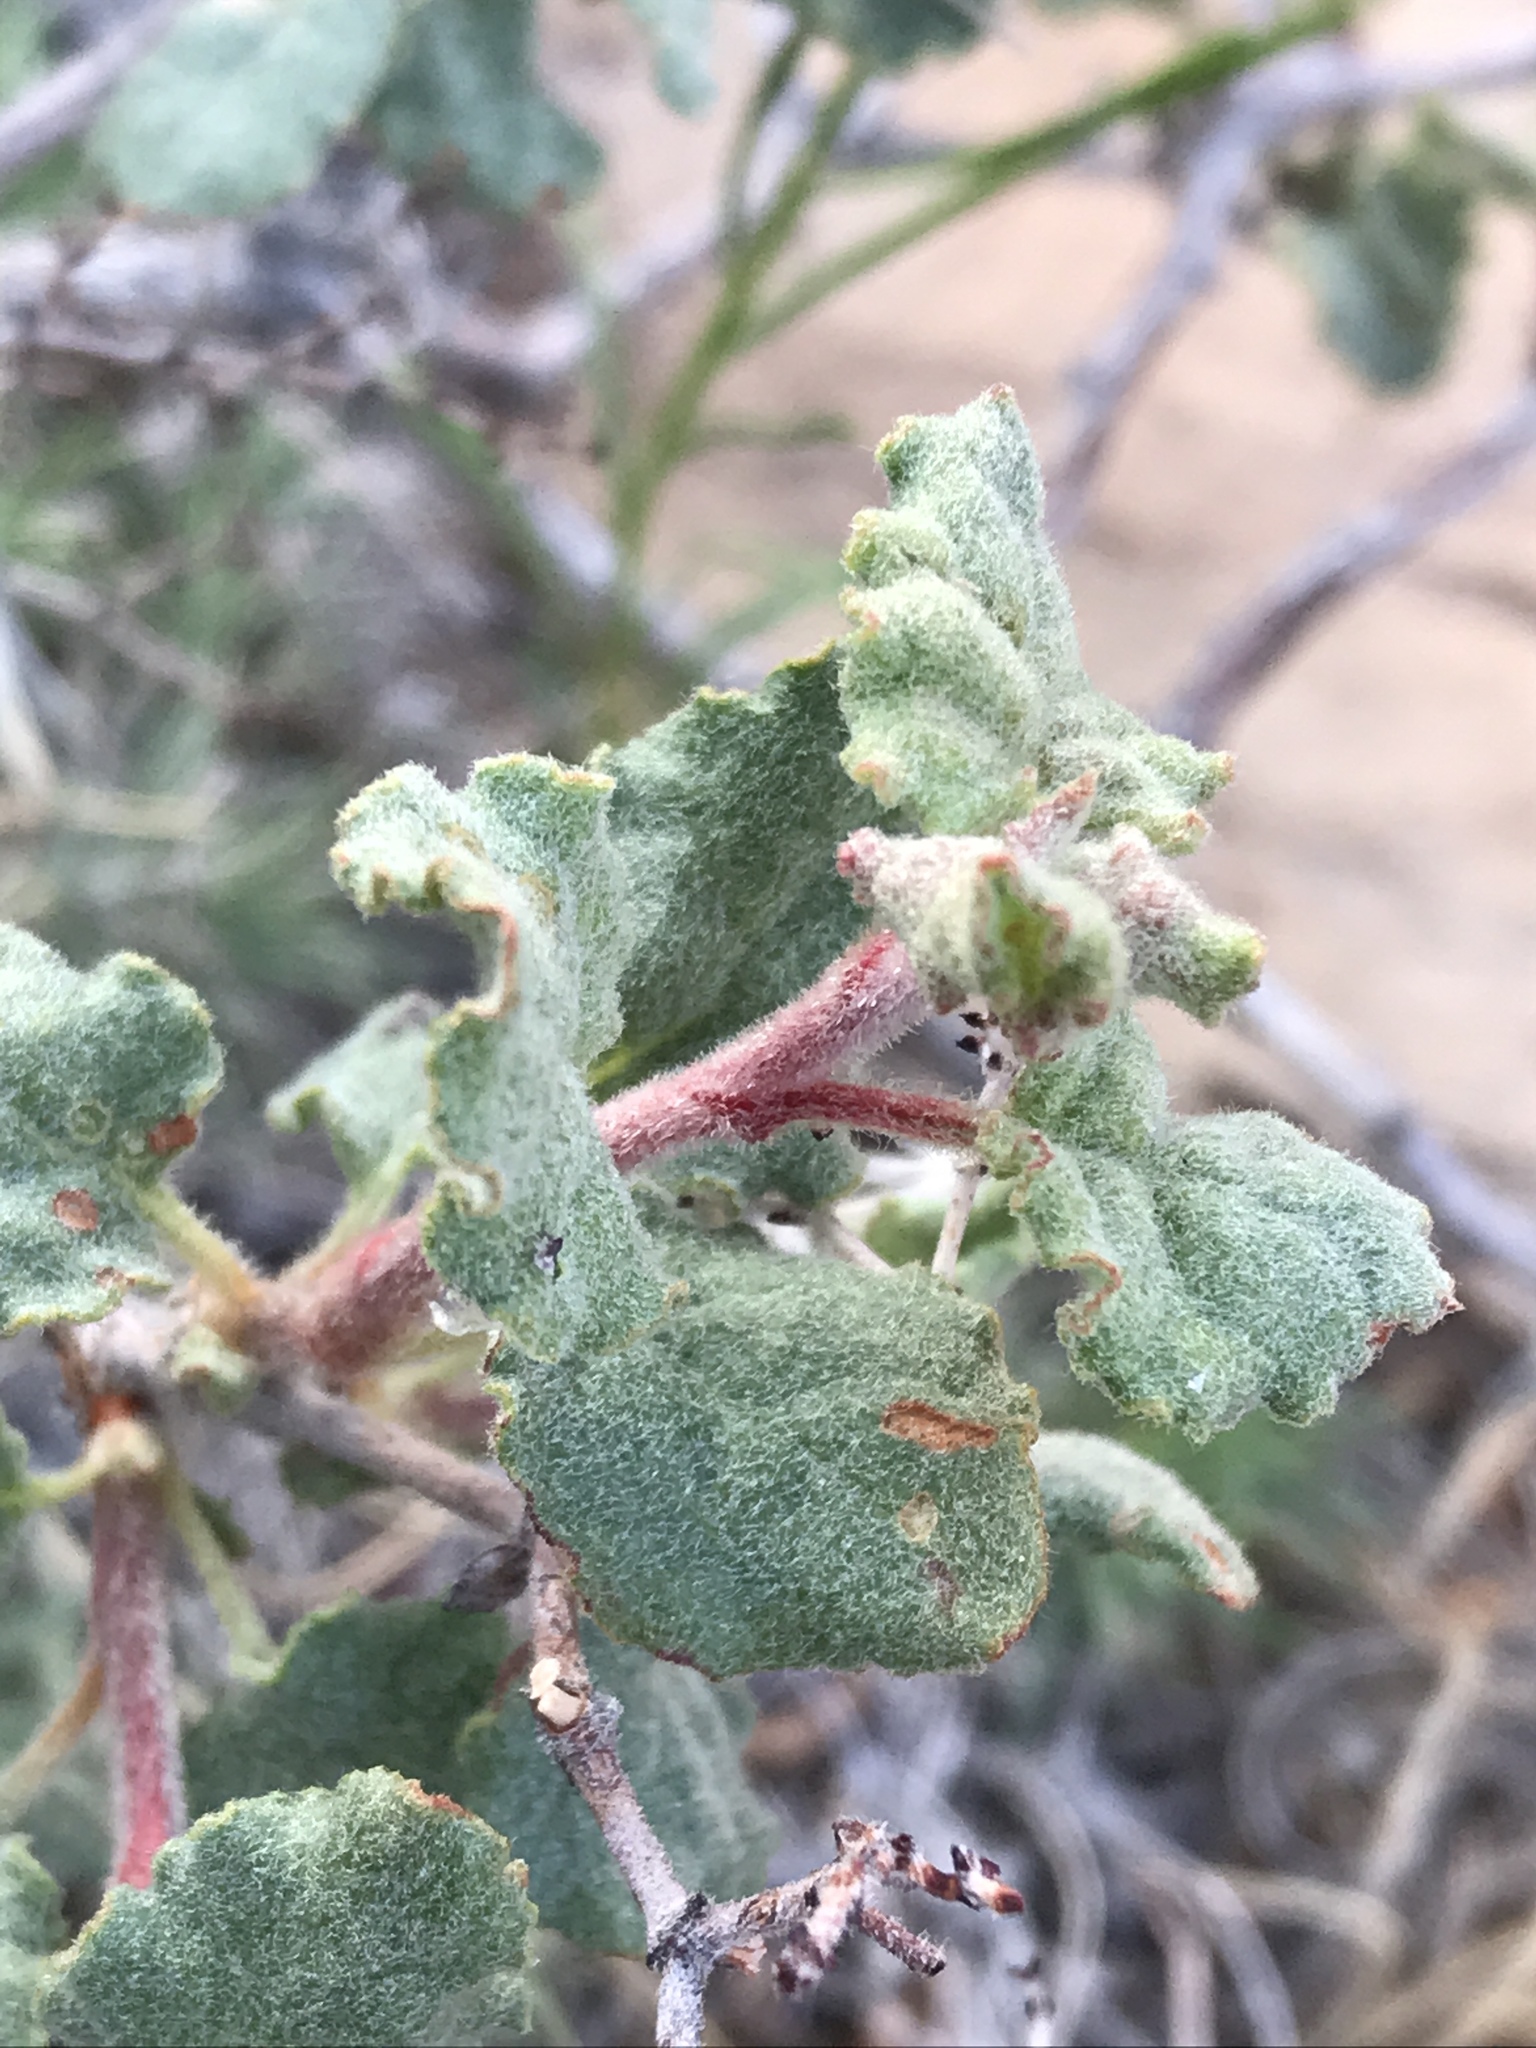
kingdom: Plantae
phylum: Tracheophyta
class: Magnoliopsida
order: Caryophyllales
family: Polygonaceae
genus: Eriogonum
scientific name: Eriogonum corymbosum
